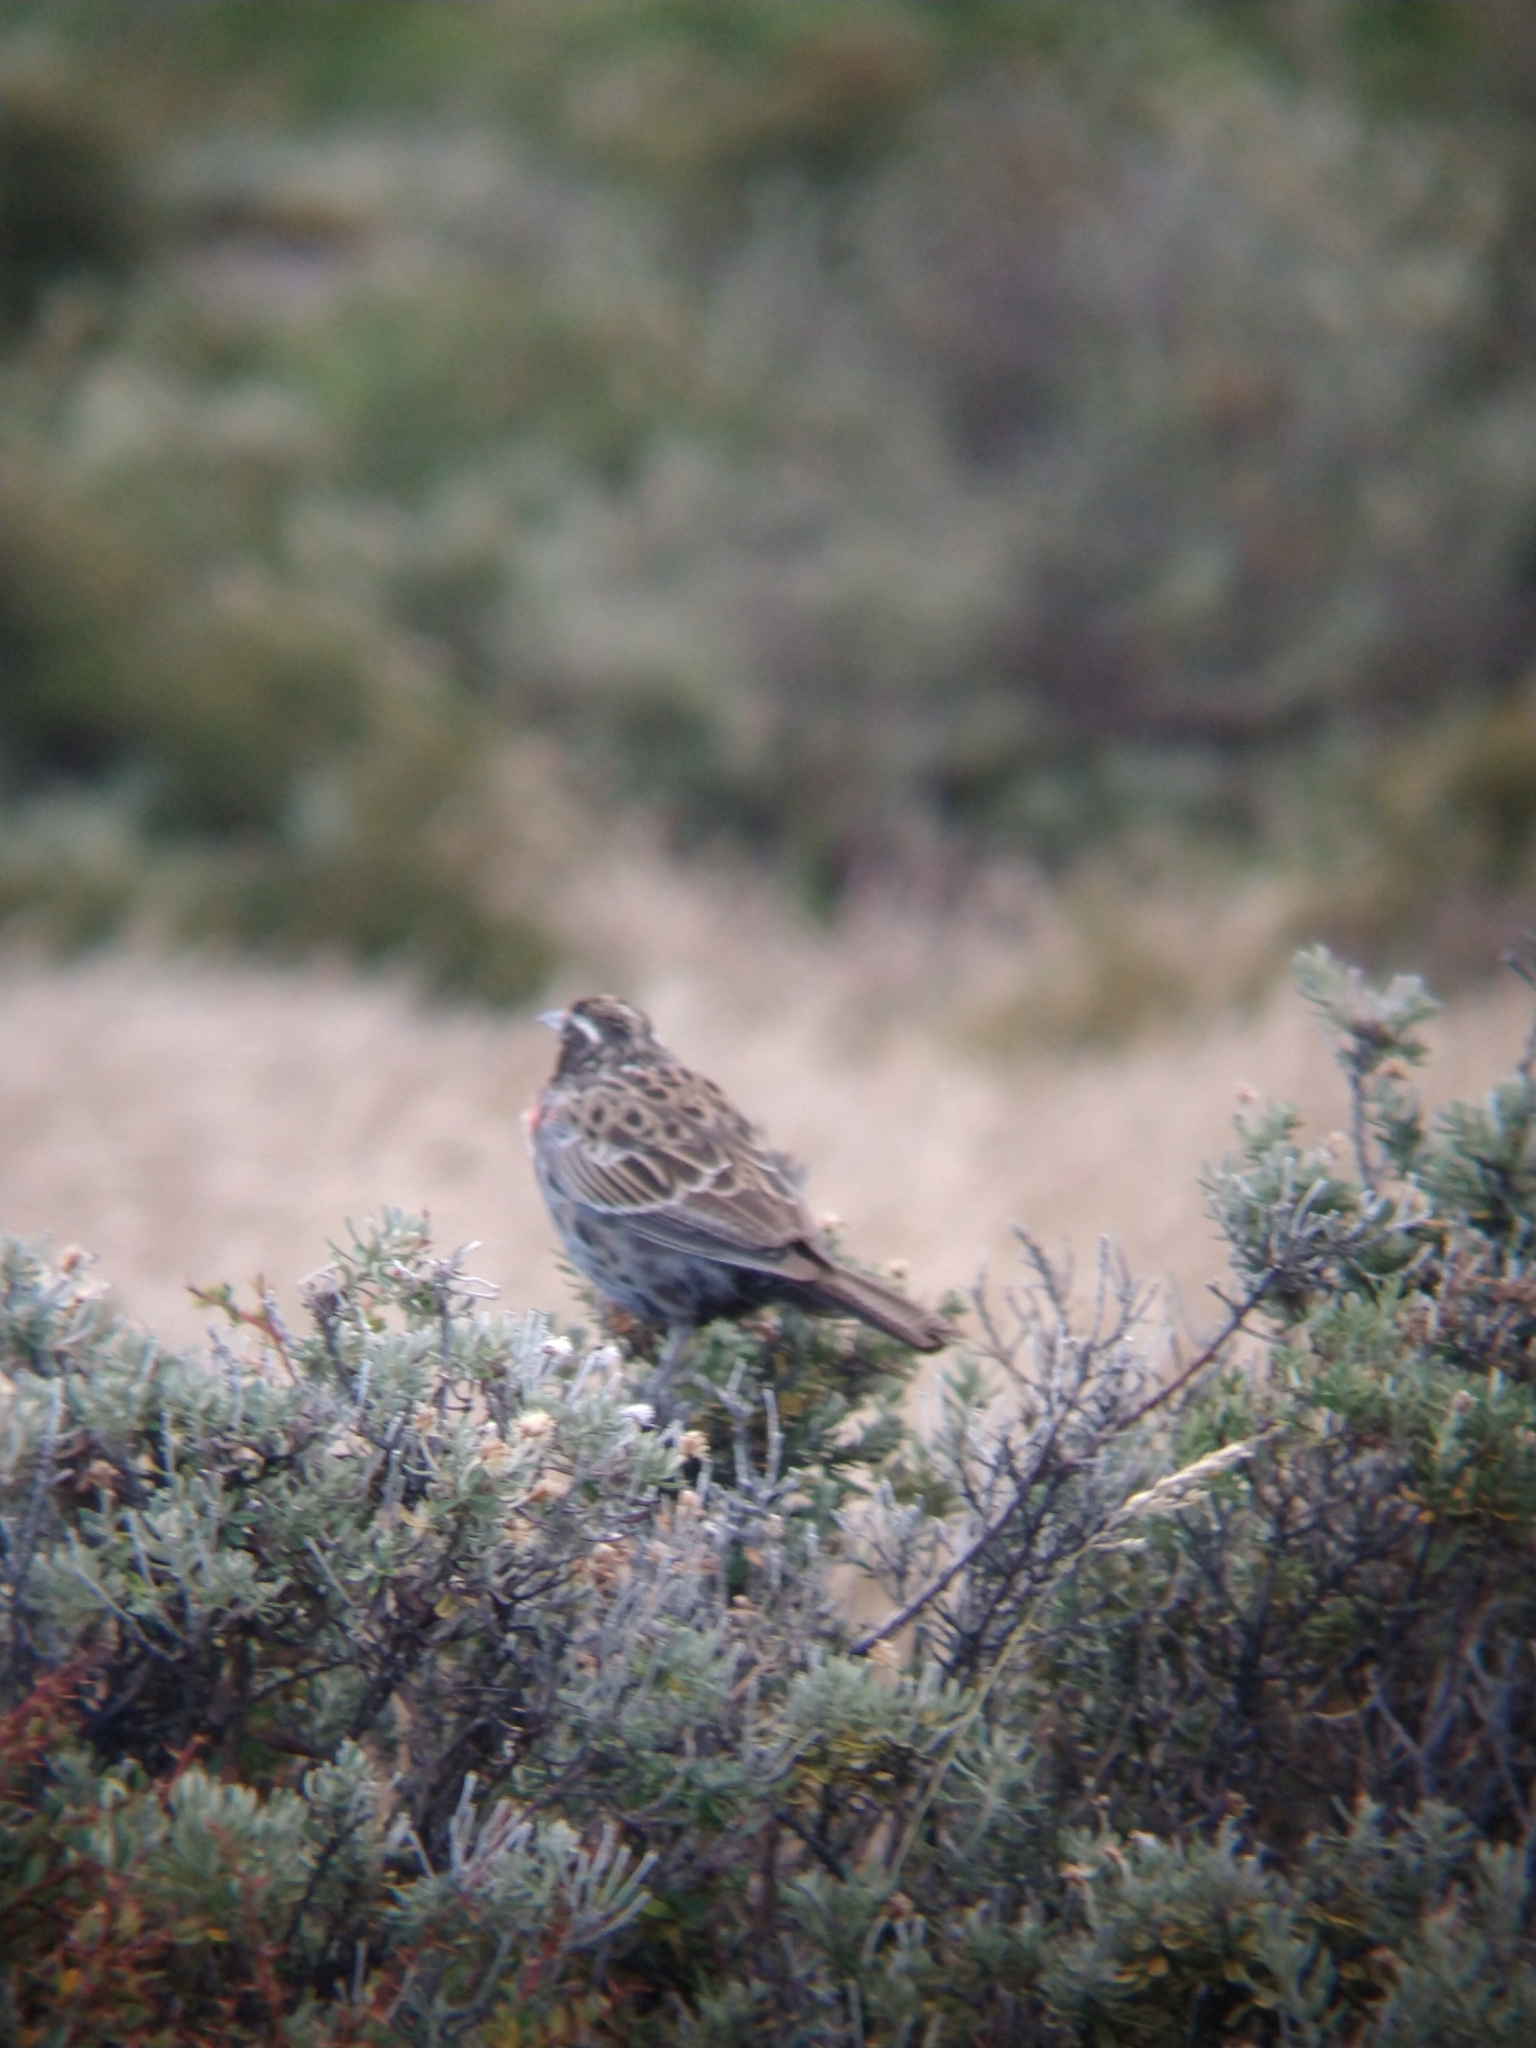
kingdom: Animalia
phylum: Chordata
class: Aves
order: Passeriformes
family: Icteridae
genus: Sturnella
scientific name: Sturnella loyca
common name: Long-tailed meadowlark
